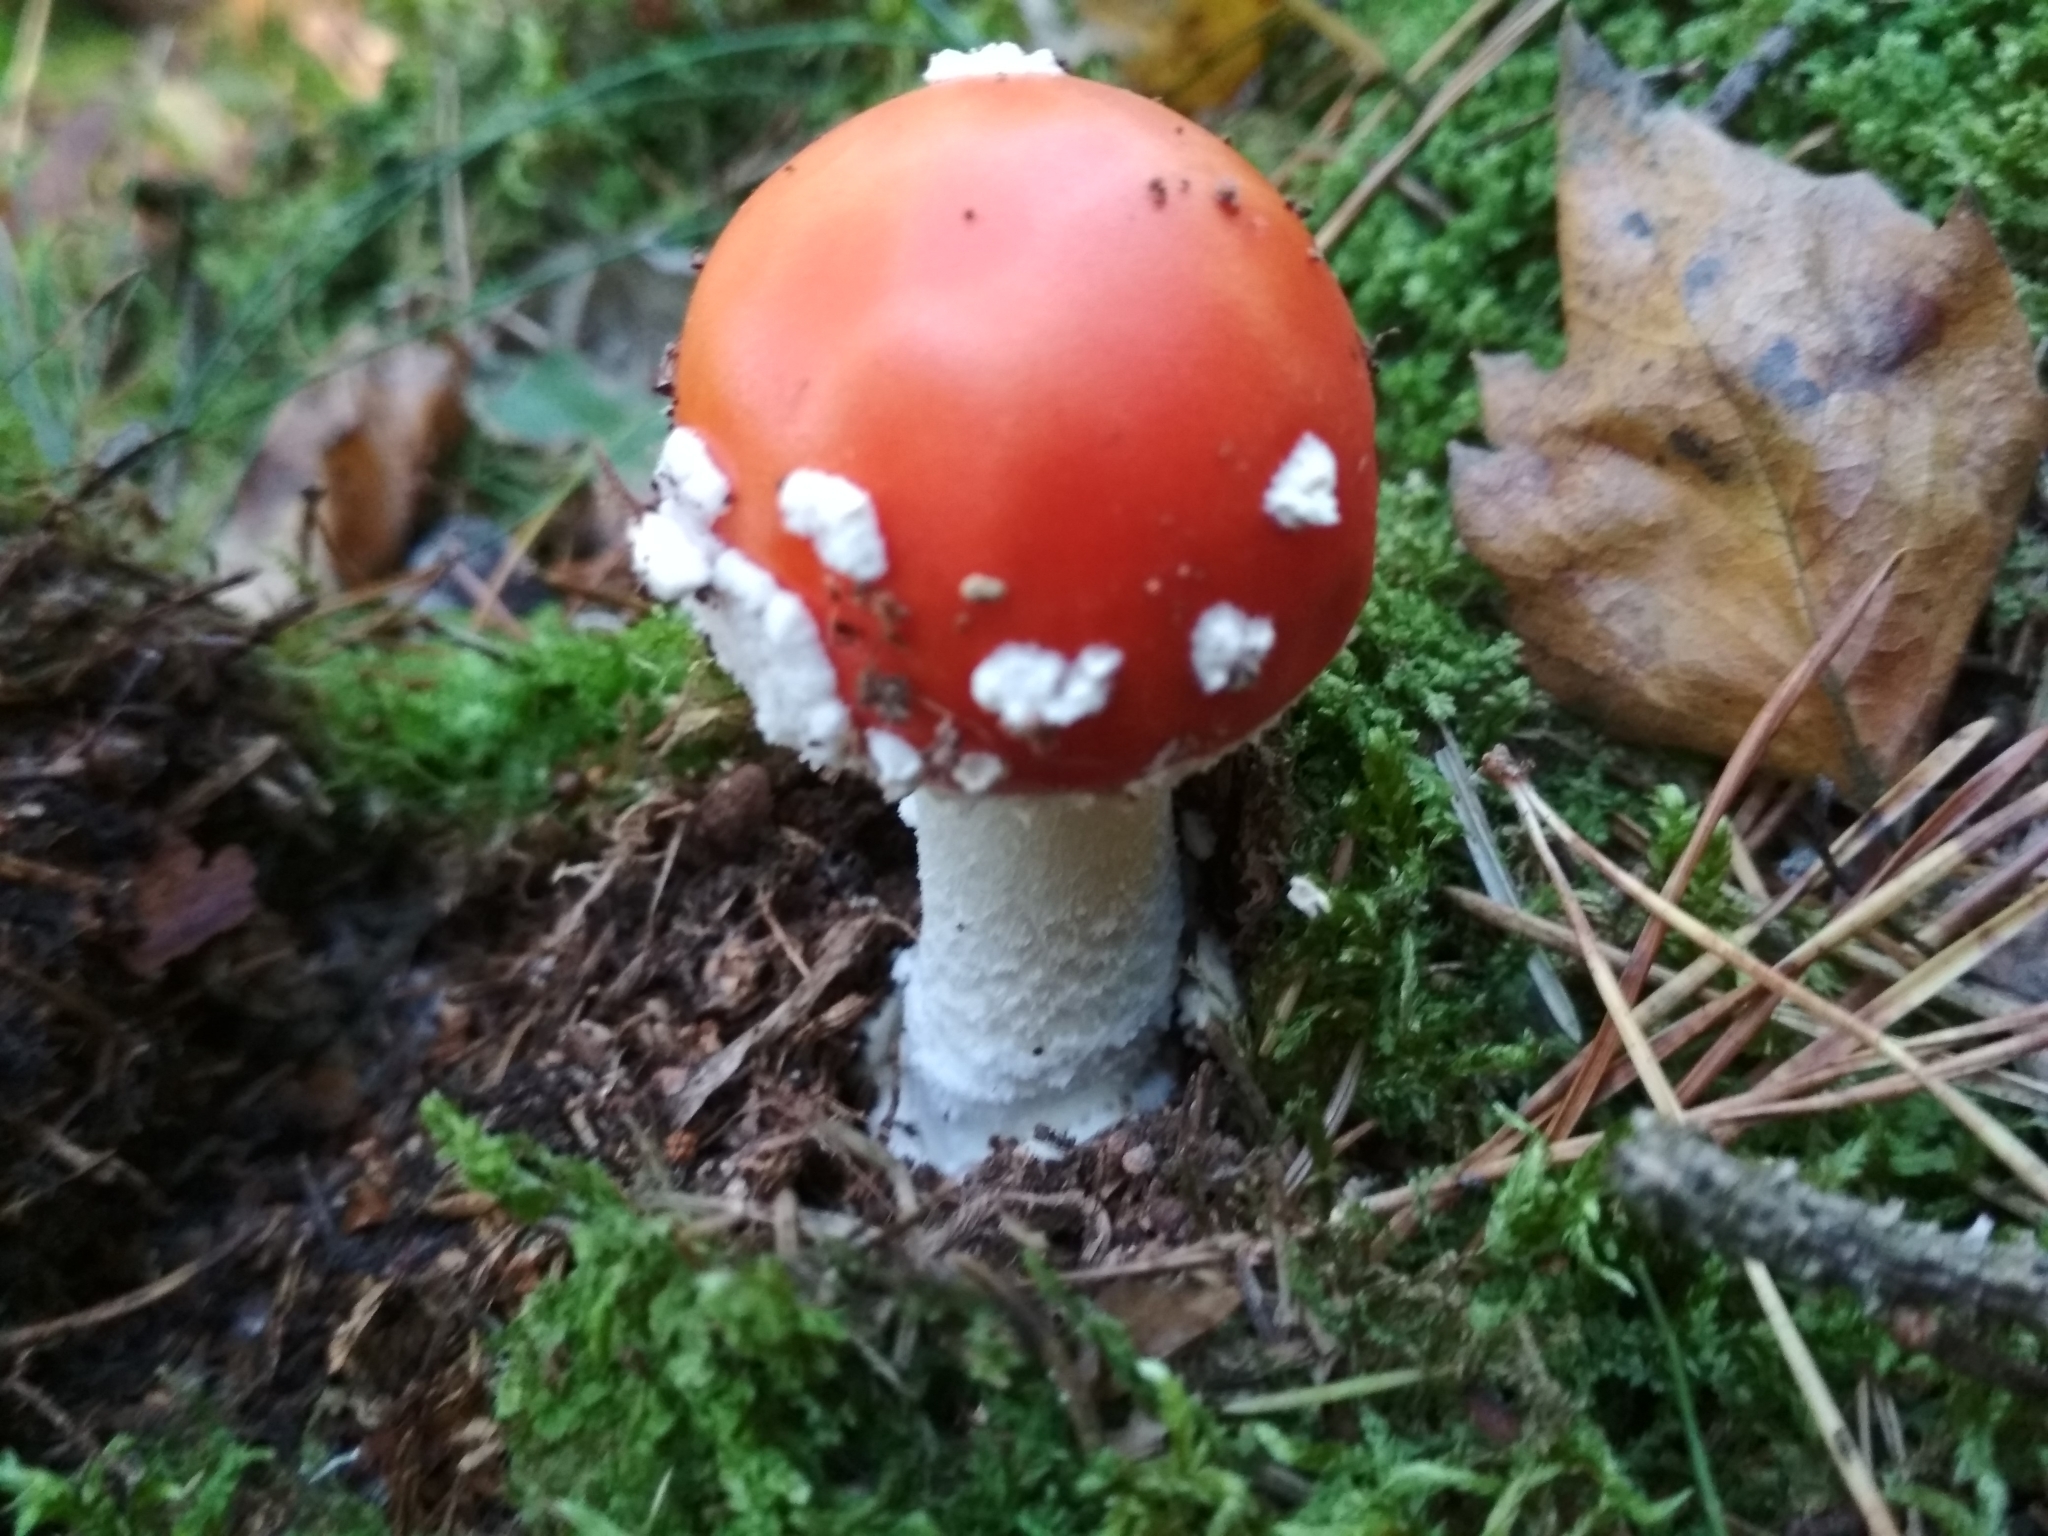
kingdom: Fungi
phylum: Basidiomycota
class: Agaricomycetes
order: Agaricales
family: Amanitaceae
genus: Amanita
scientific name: Amanita muscaria
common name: Fly agaric
